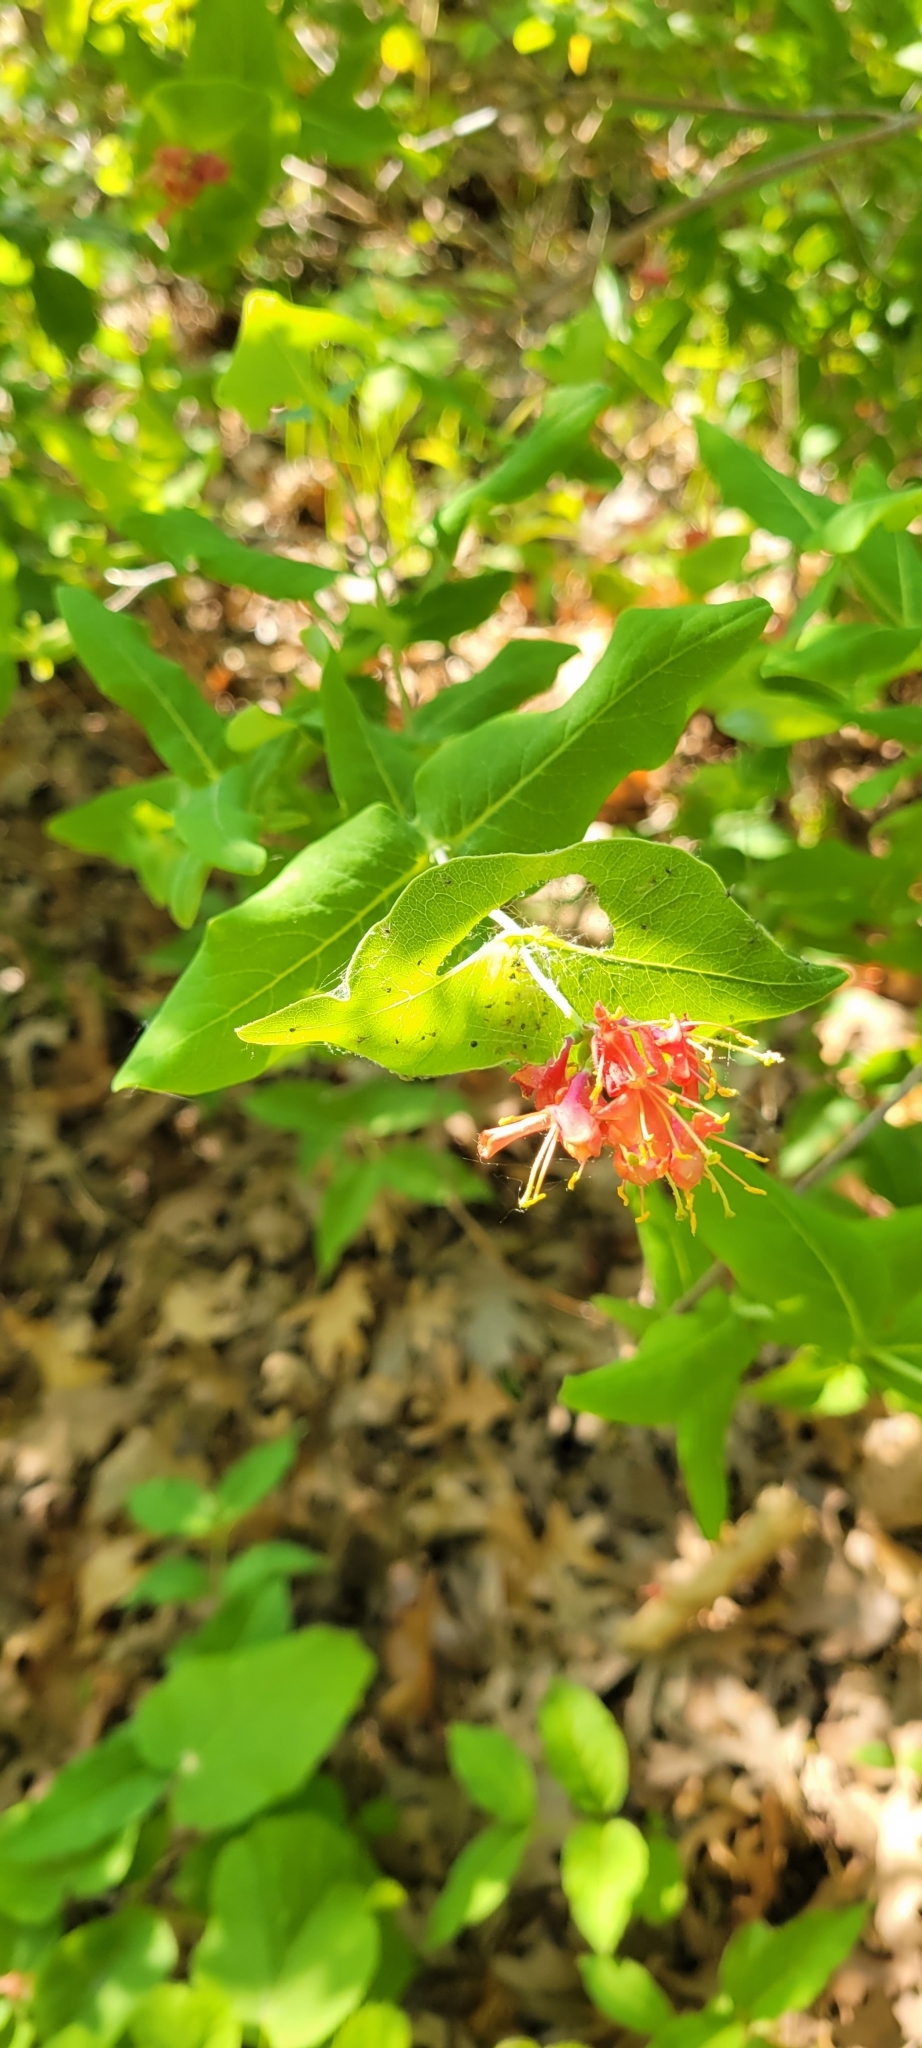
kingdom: Plantae
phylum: Tracheophyta
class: Magnoliopsida
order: Dipsacales
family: Caprifoliaceae
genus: Lonicera
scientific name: Lonicera dioica
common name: Limber honeysuckle
